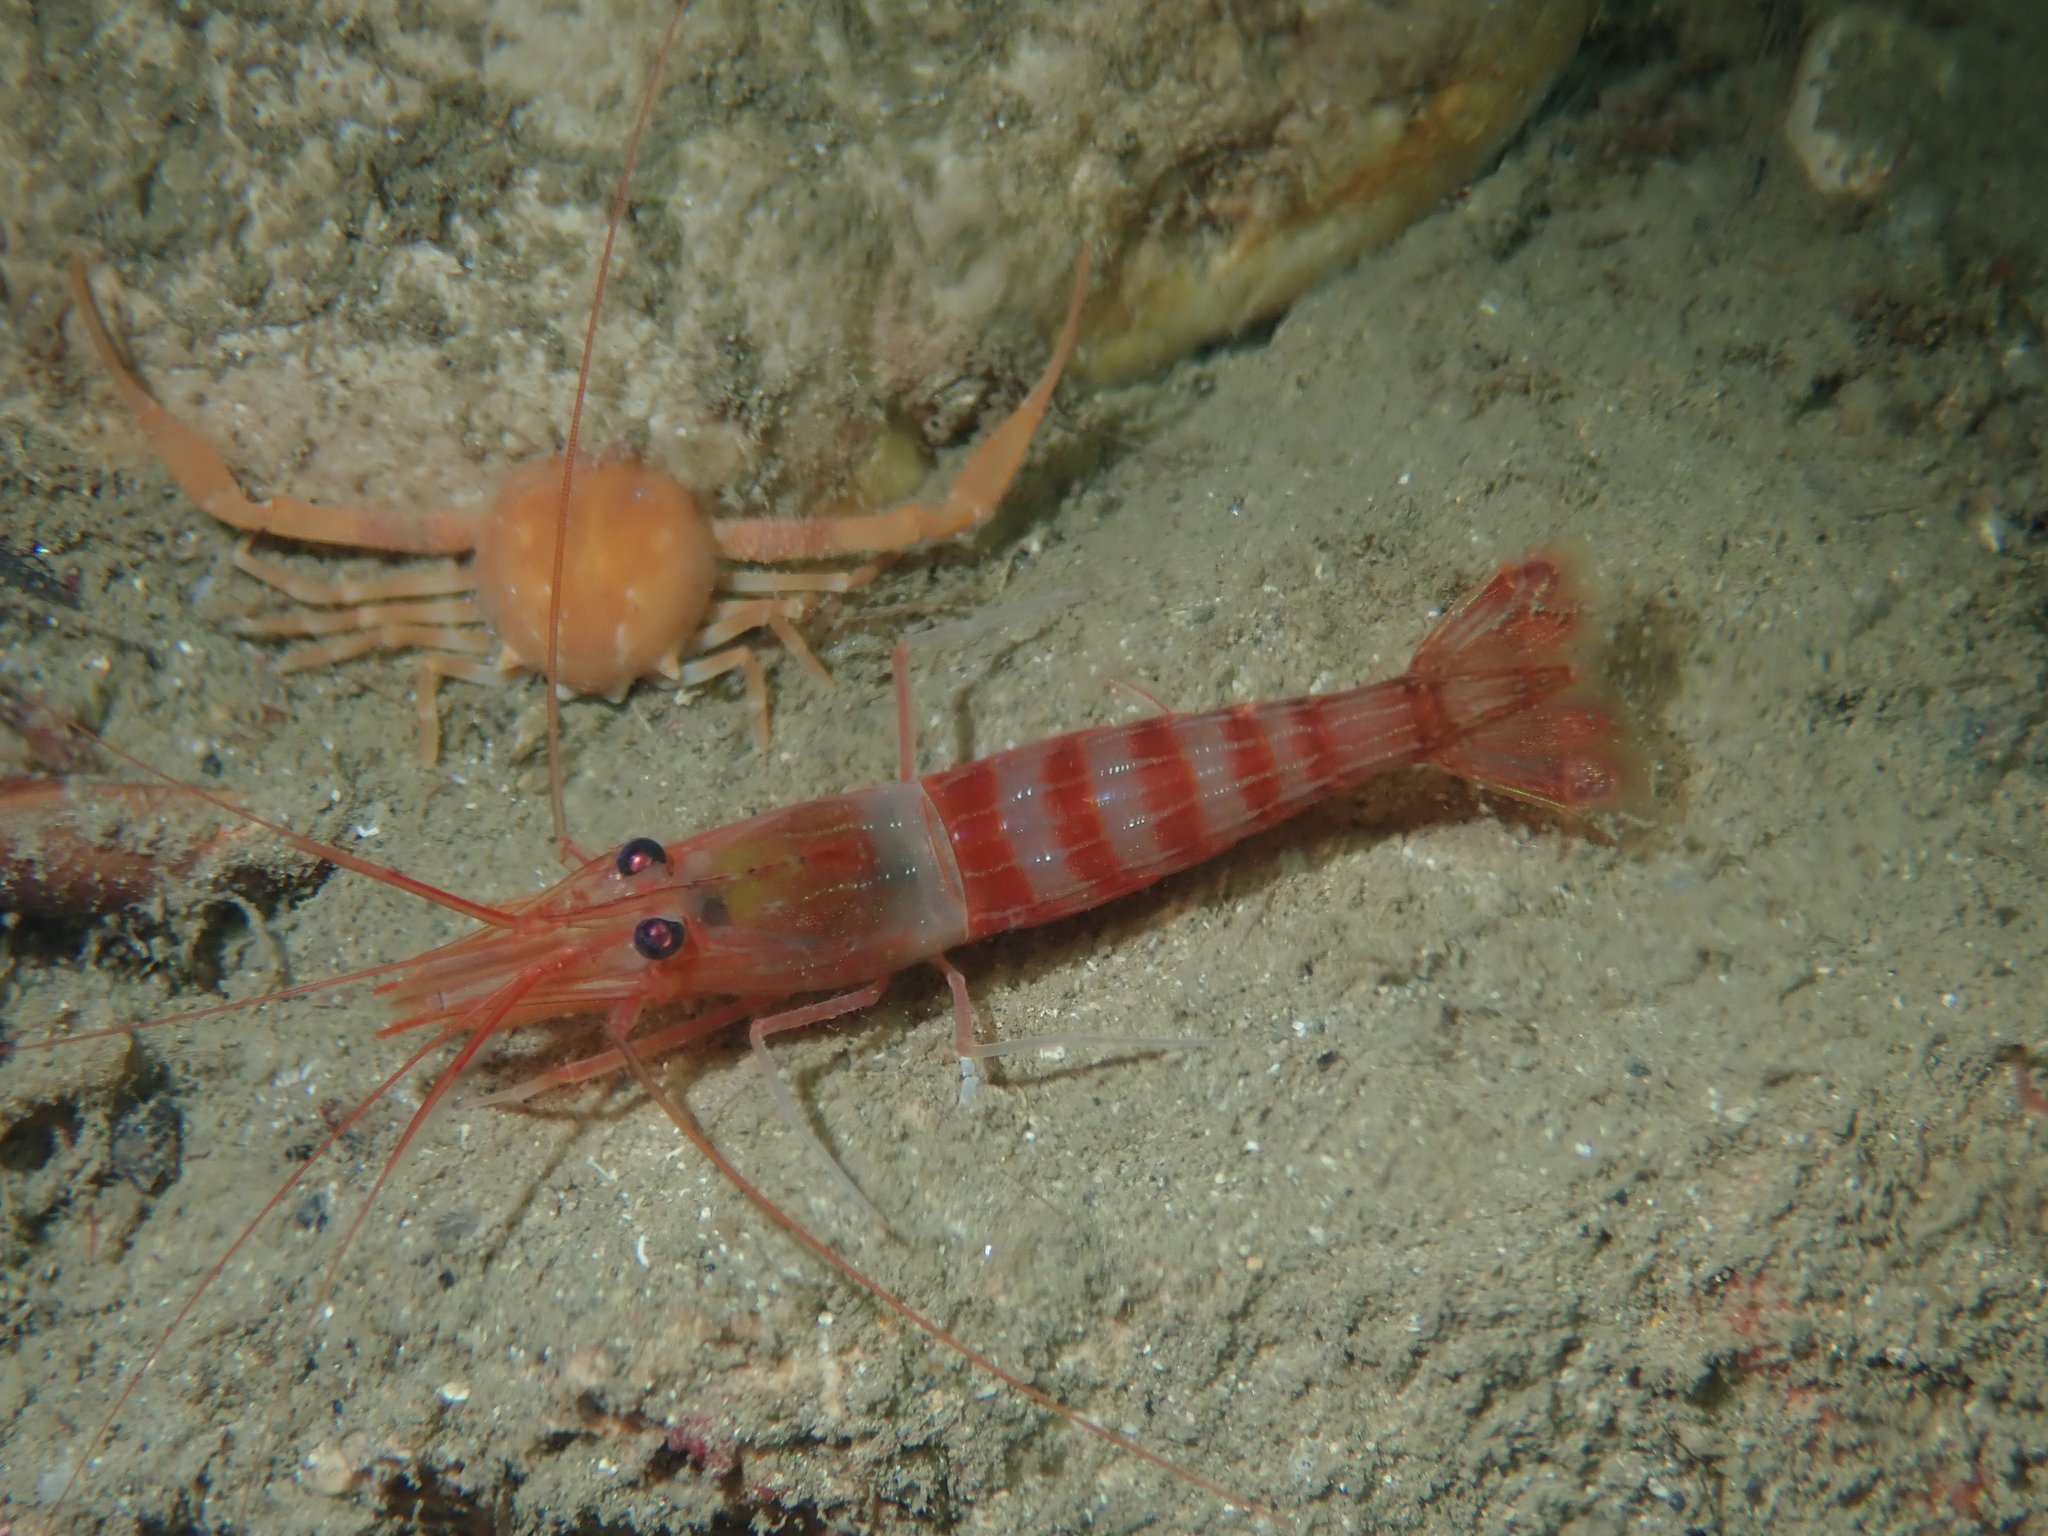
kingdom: Animalia
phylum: Arthropoda
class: Malacostraca
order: Decapoda
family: Lysmatidae
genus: Lysmata
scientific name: Lysmata seticaudata
